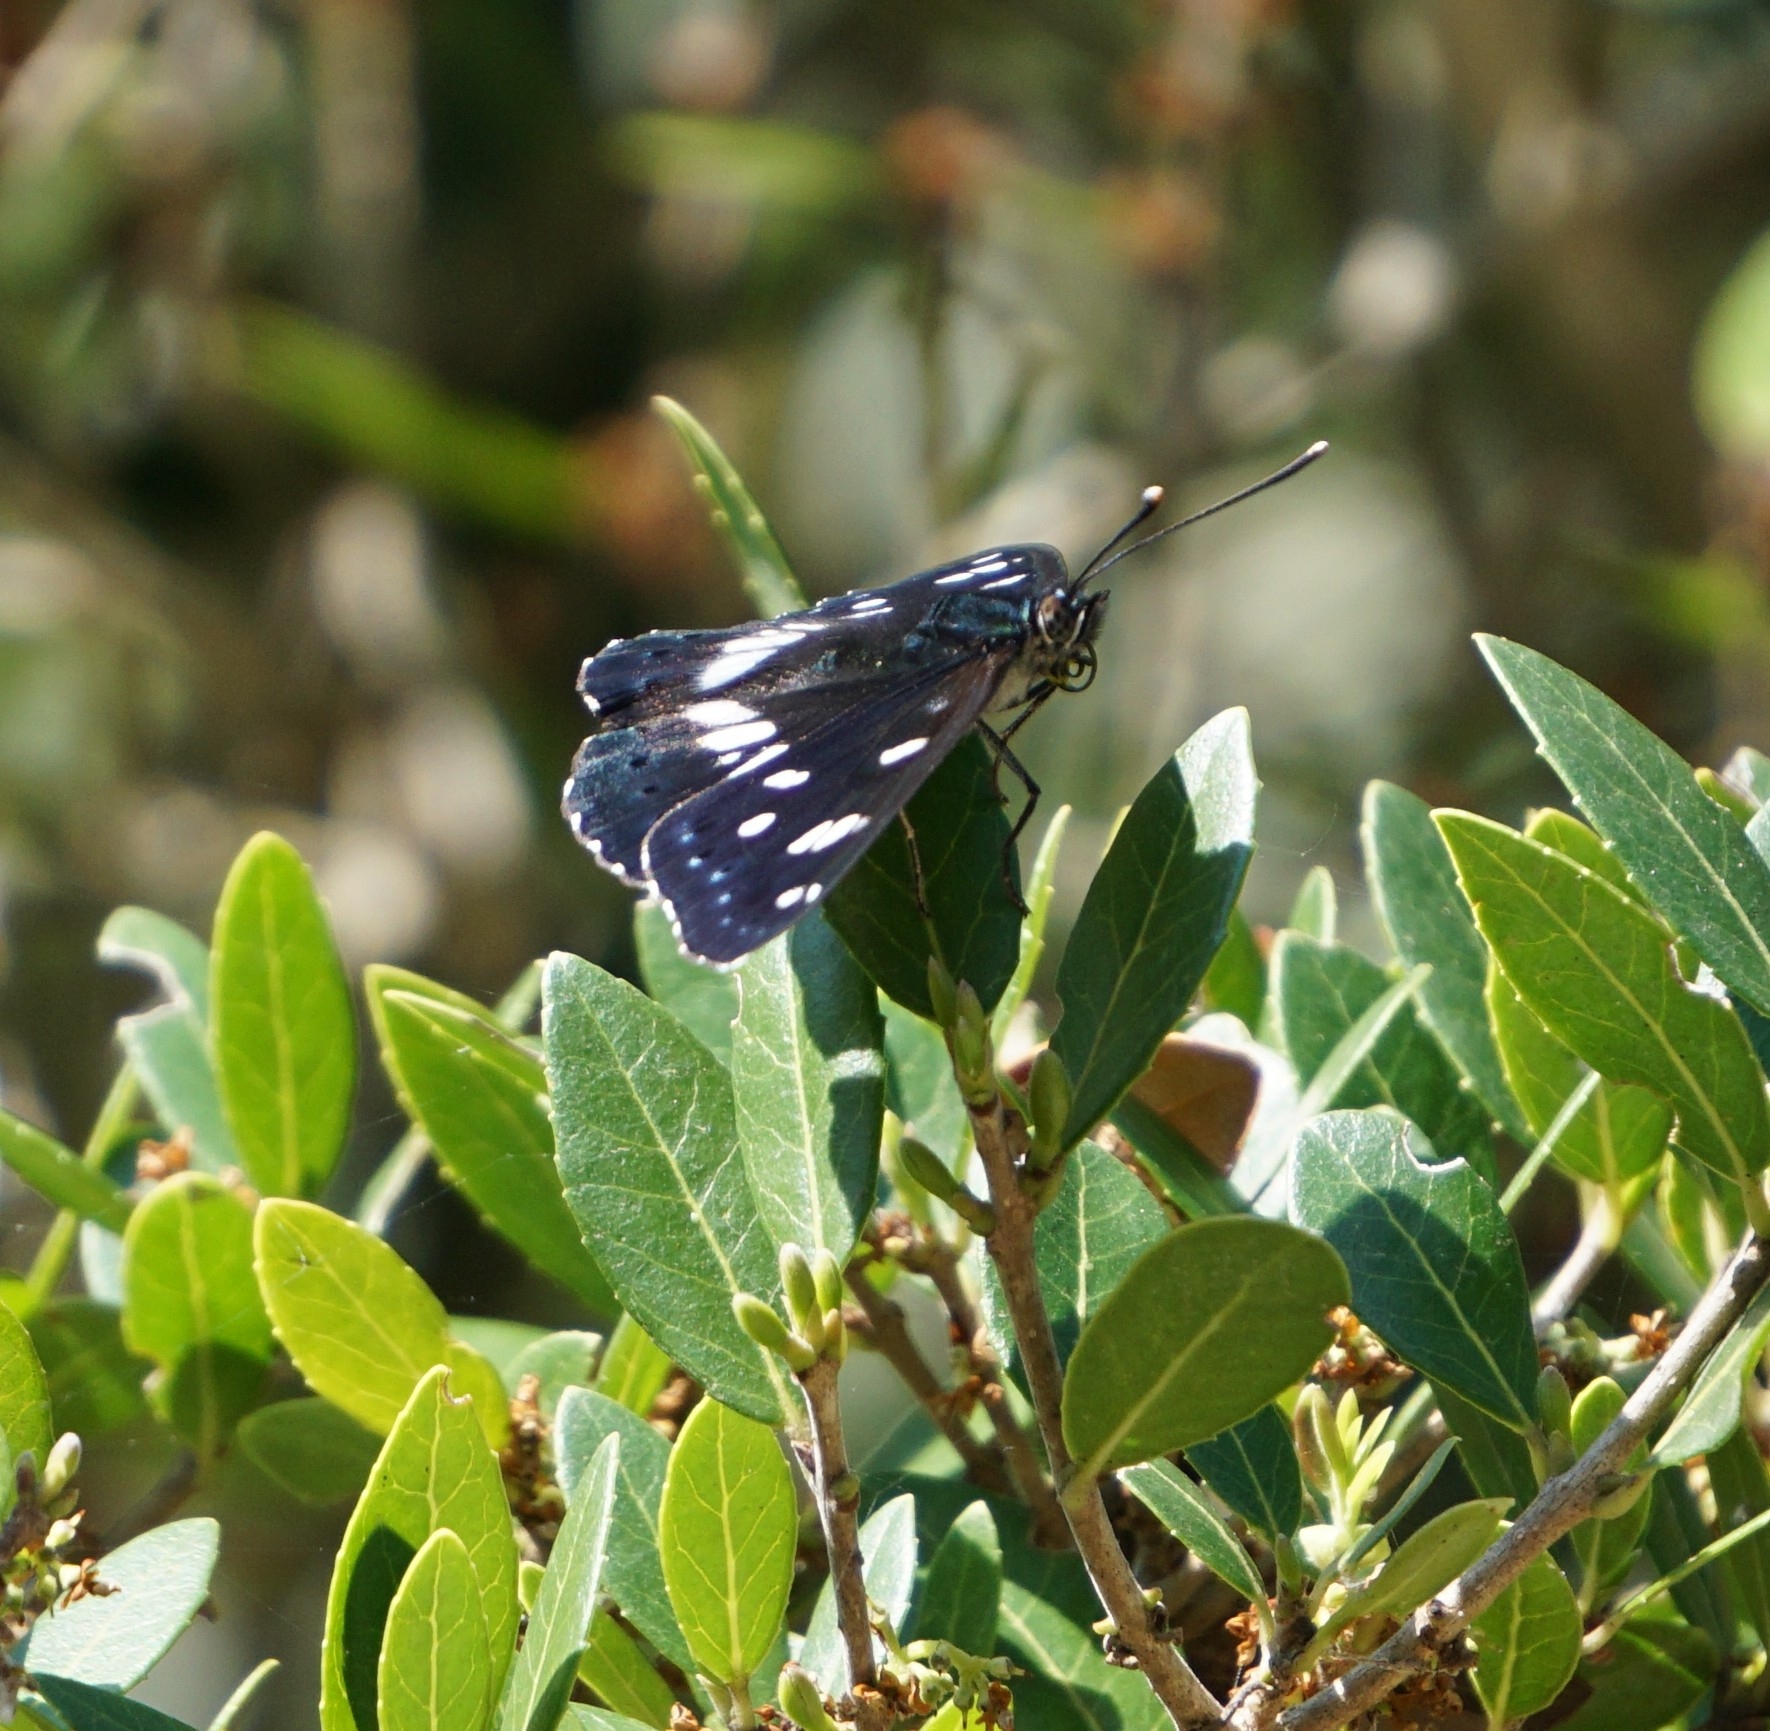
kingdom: Animalia
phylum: Arthropoda
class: Insecta
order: Lepidoptera
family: Nymphalidae
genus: Limenitis
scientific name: Limenitis reducta
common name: Southern white admiral
